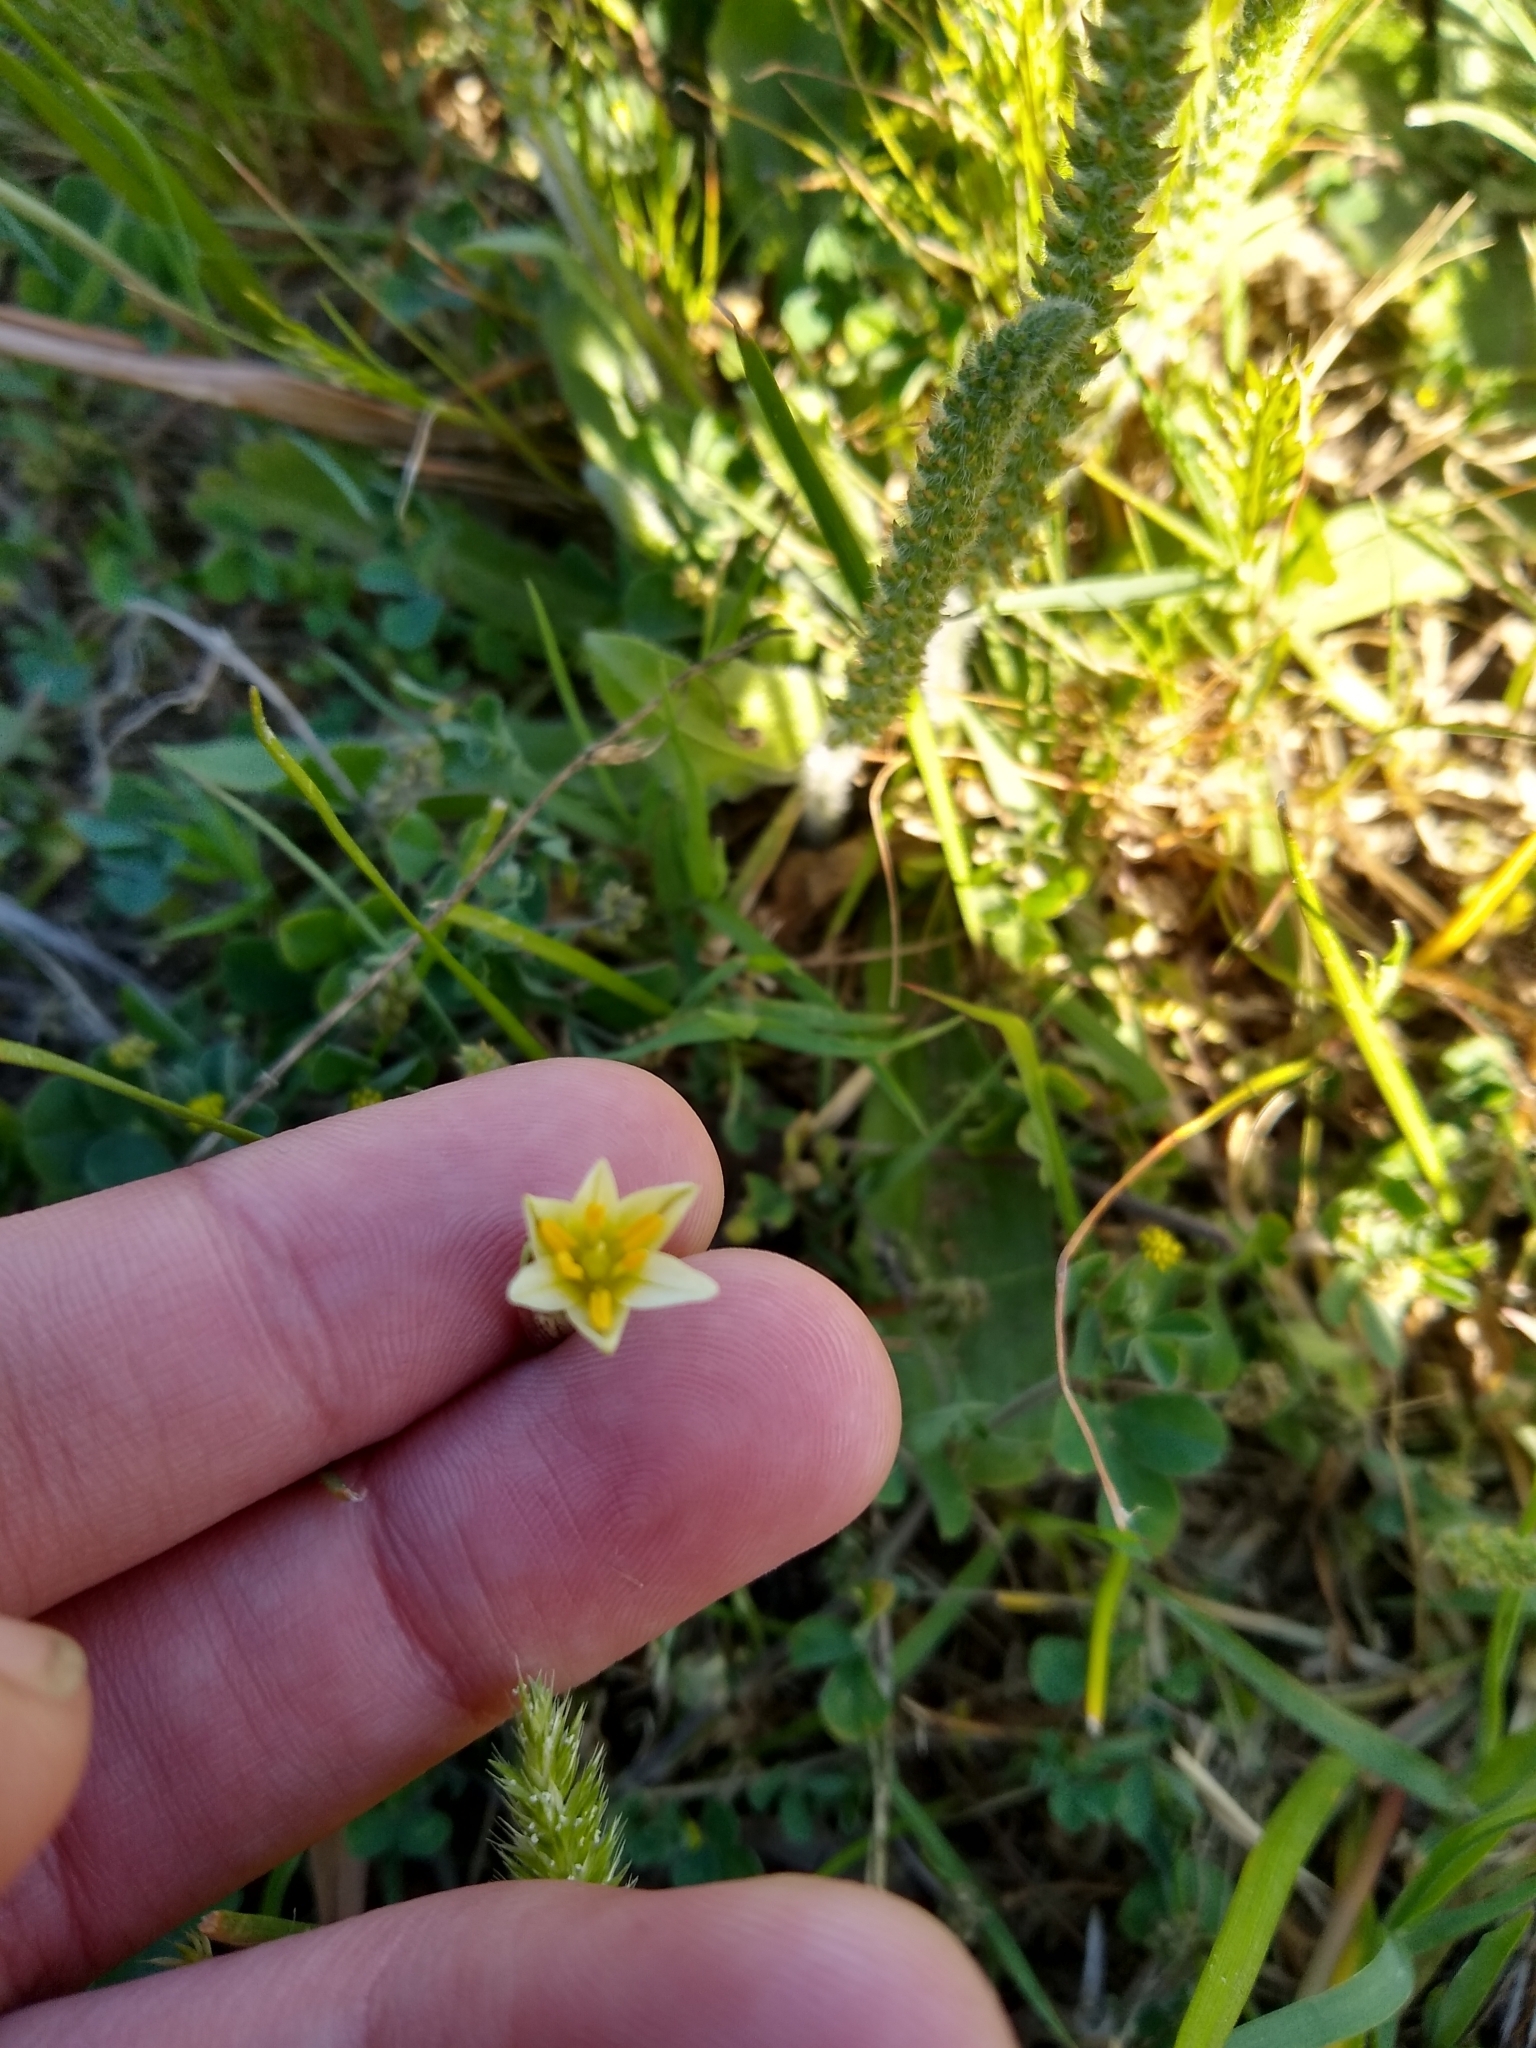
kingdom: Plantae
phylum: Tracheophyta
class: Liliopsida
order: Asparagales
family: Amaryllidaceae
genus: Nothoscordum
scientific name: Nothoscordum bonariense
